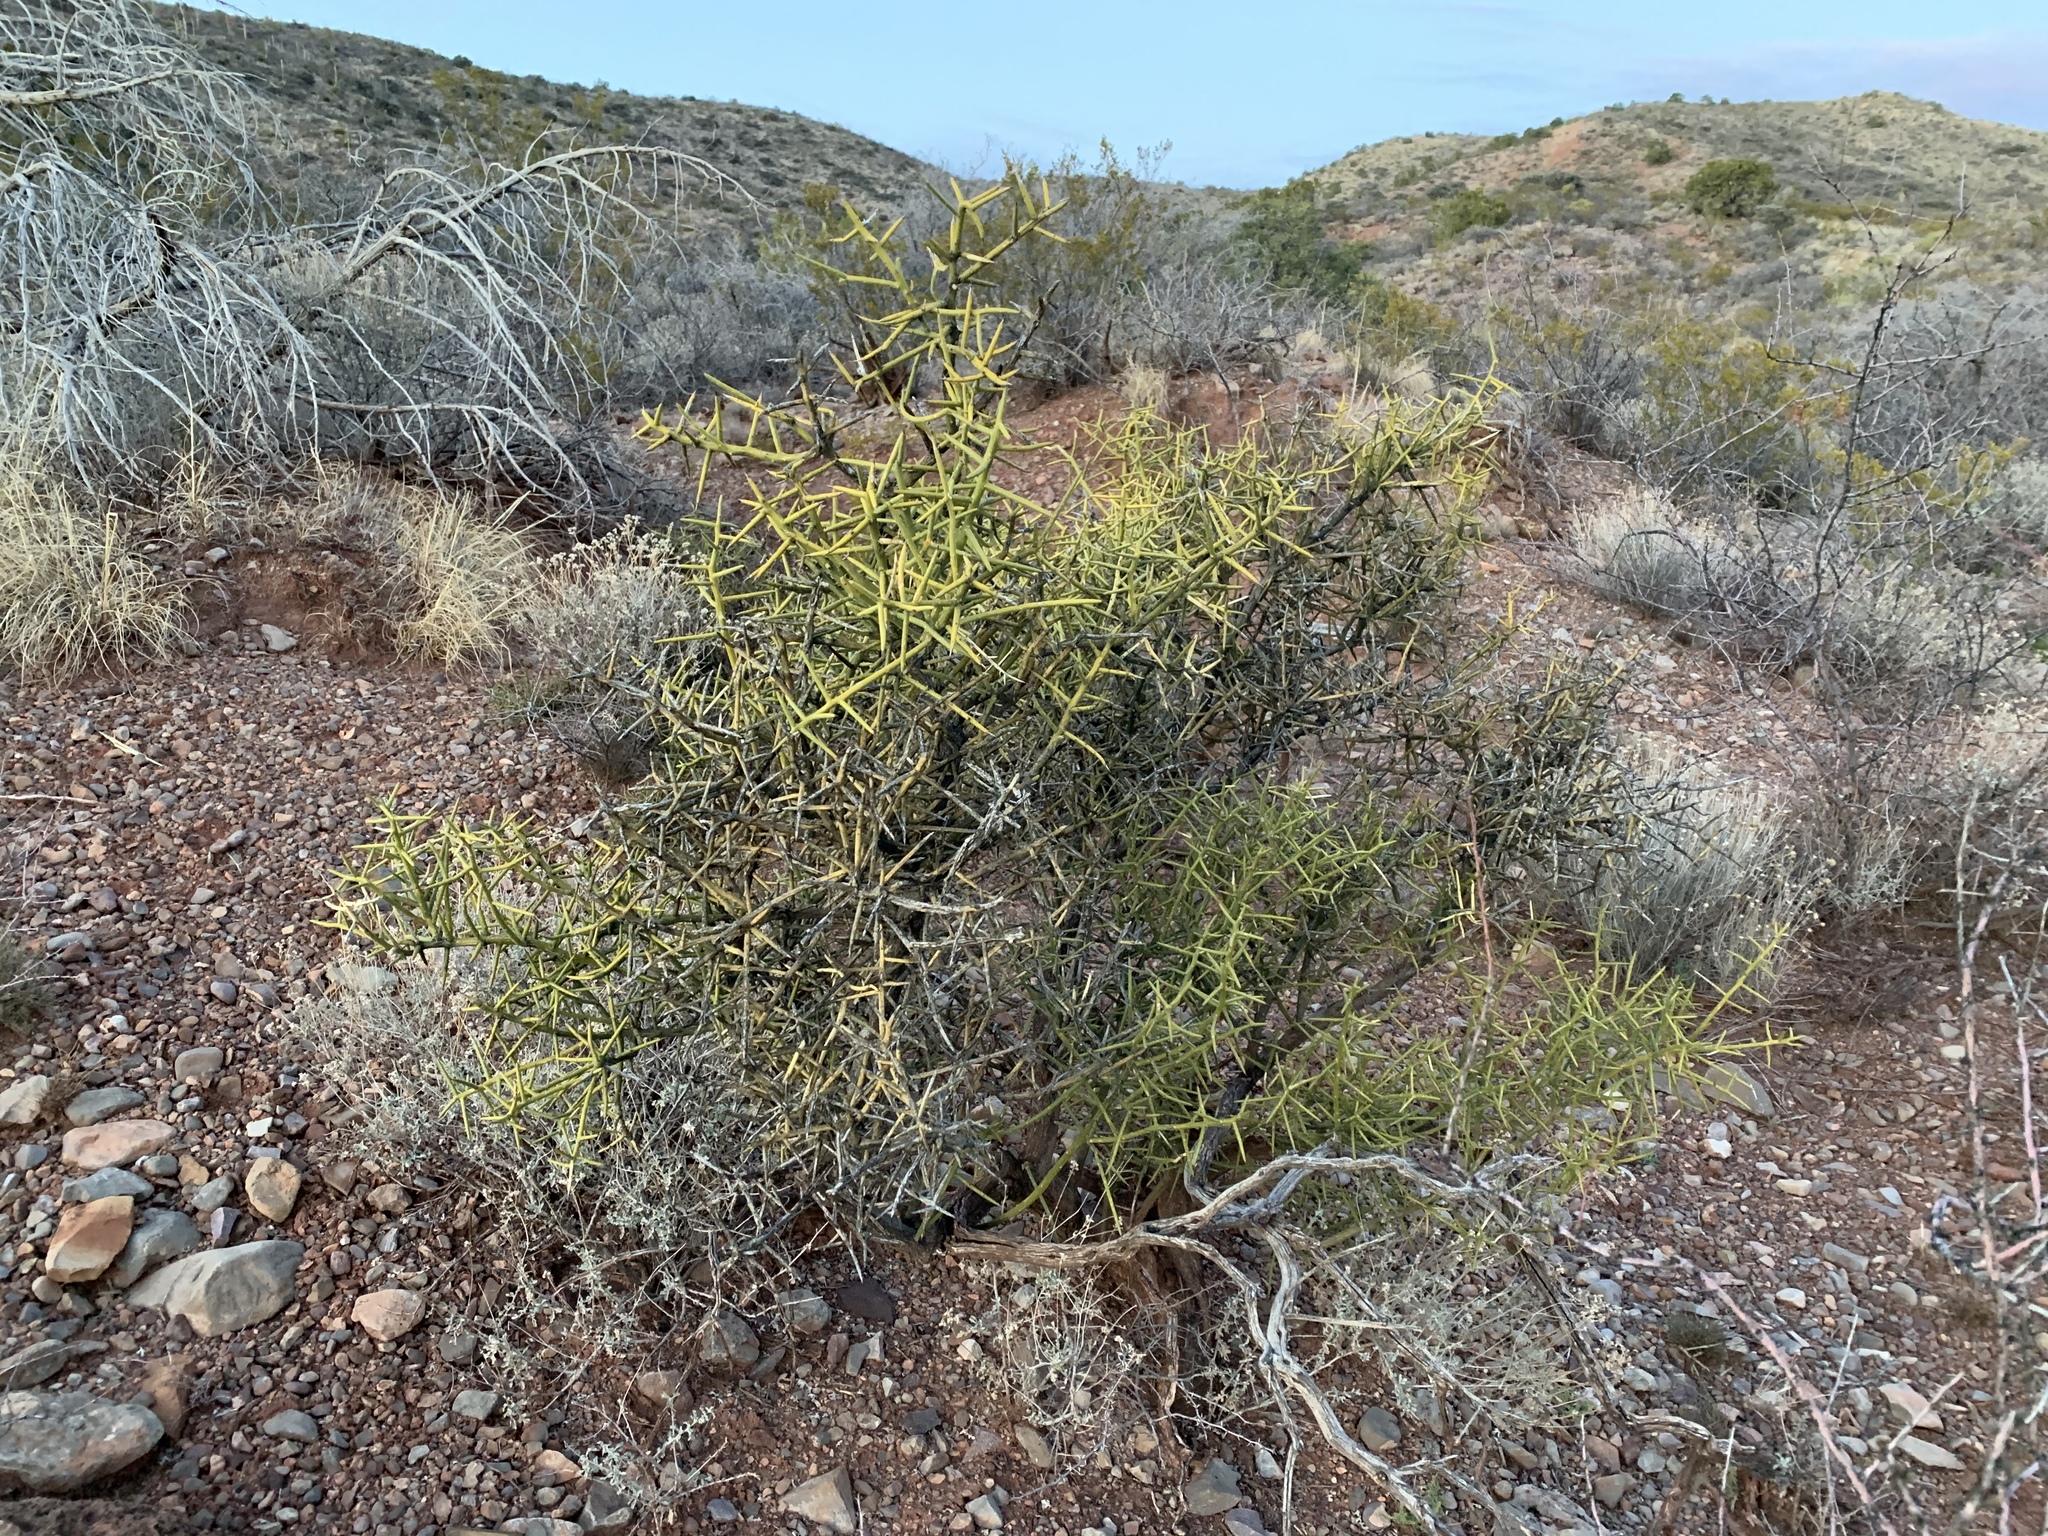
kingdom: Plantae
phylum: Tracheophyta
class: Magnoliopsida
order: Brassicales
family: Koeberliniaceae
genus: Koeberlinia
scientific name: Koeberlinia spinosa
